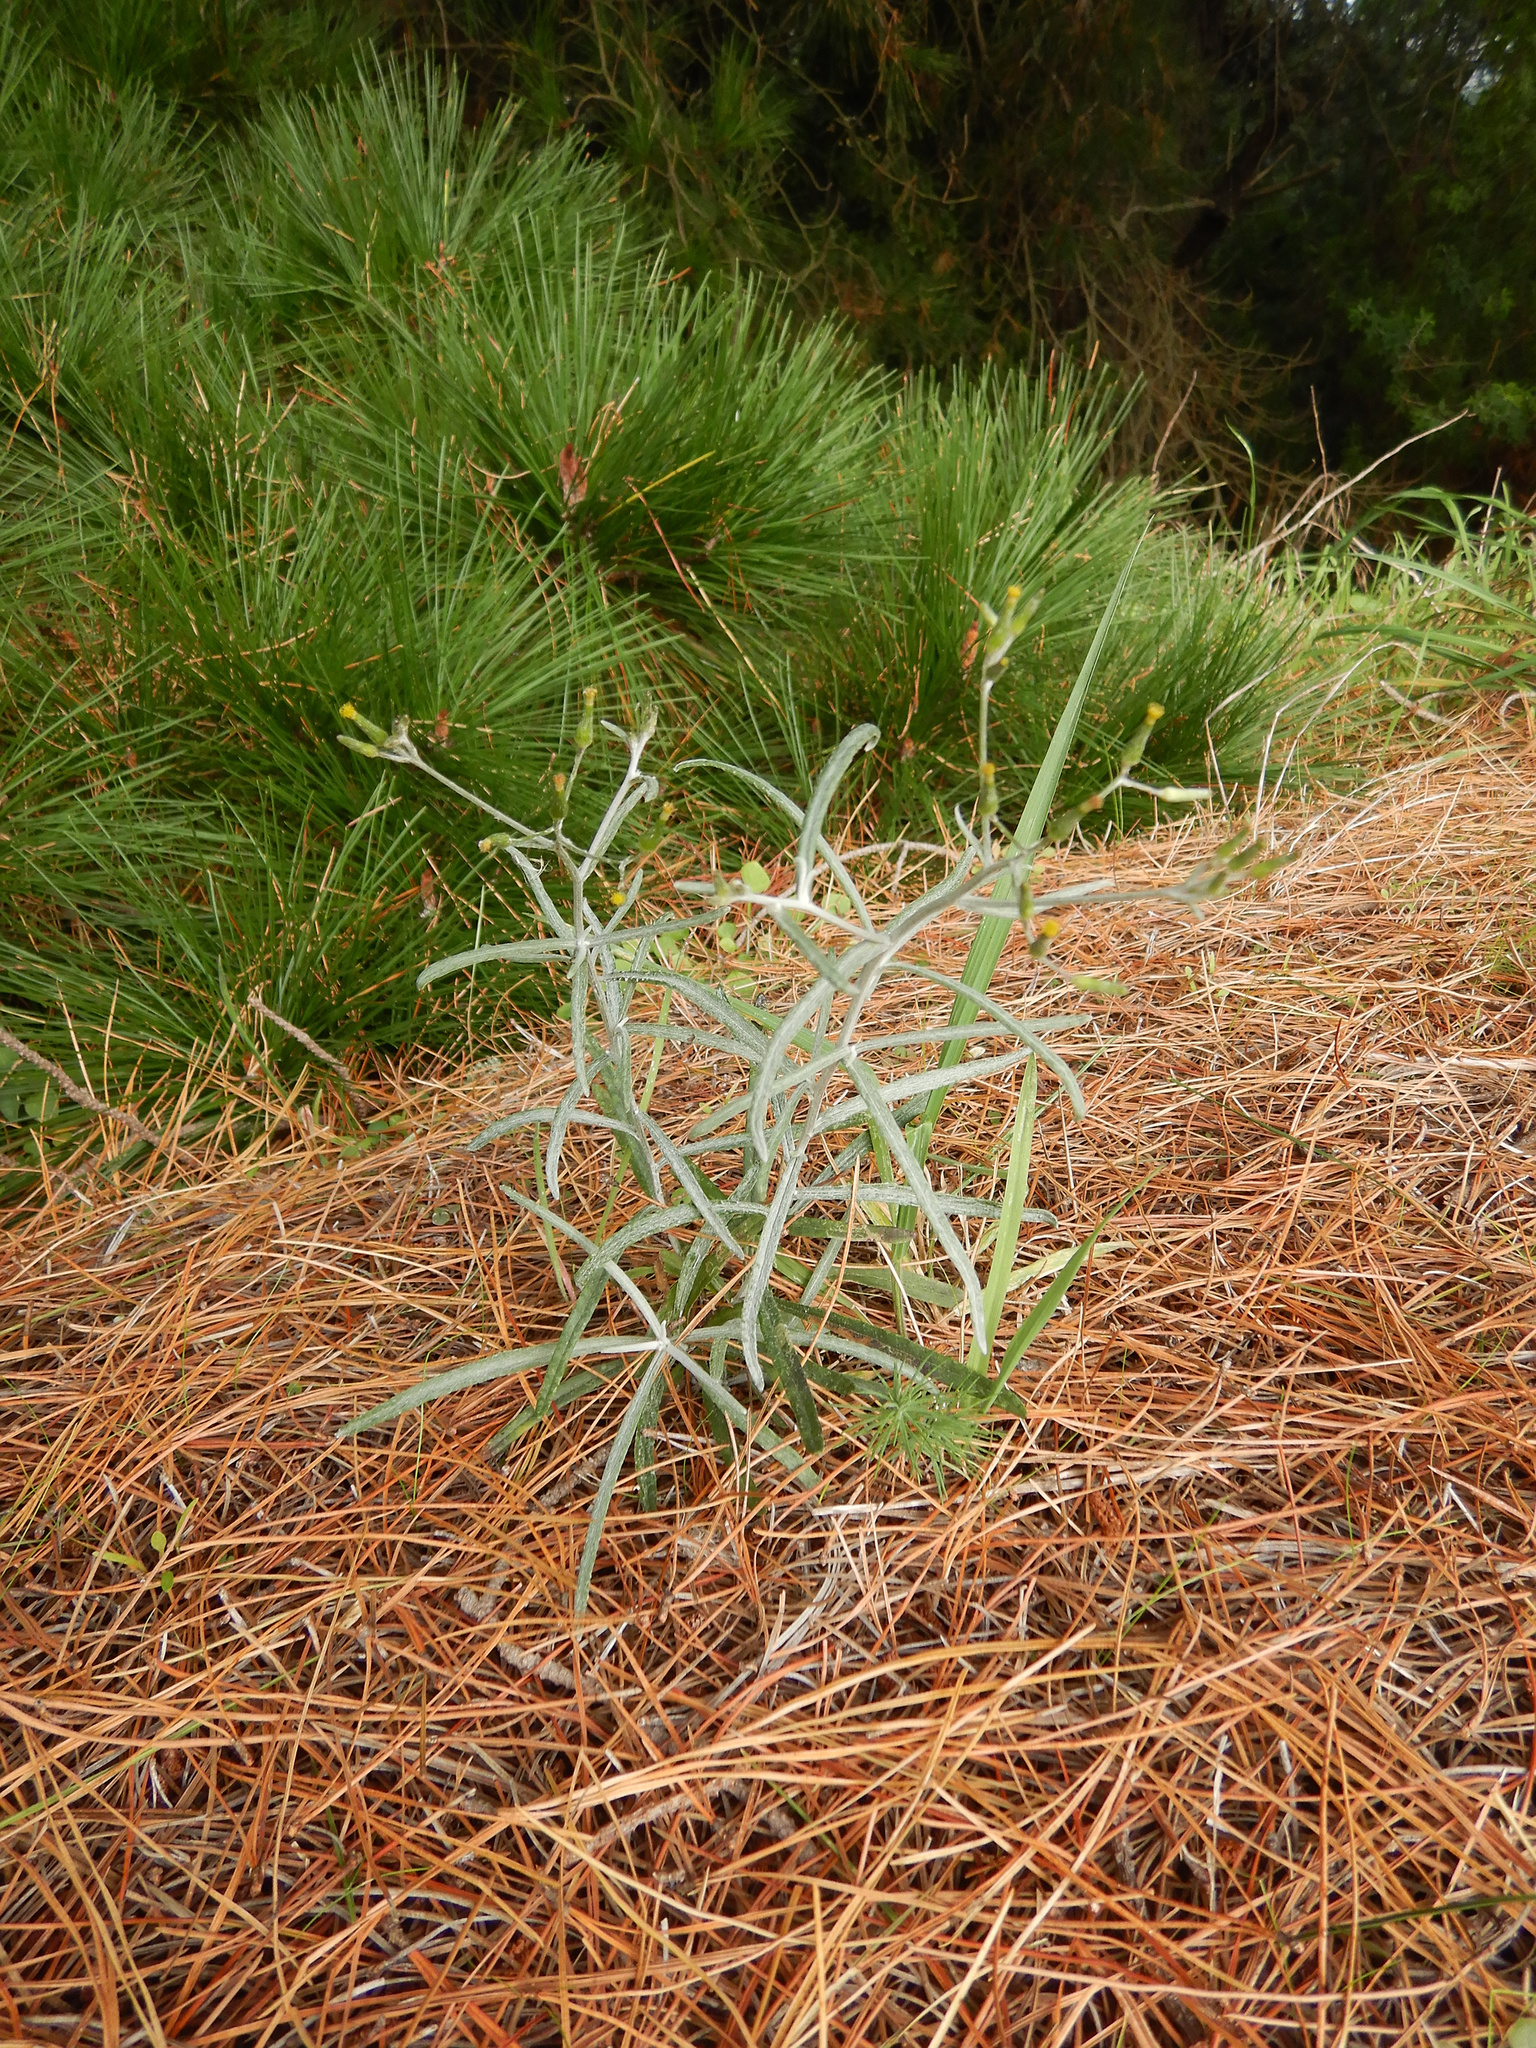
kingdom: Plantae
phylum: Tracheophyta
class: Magnoliopsida
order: Asterales
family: Asteraceae
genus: Senecio
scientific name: Senecio quadridentatus
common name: Cotton fireweed
